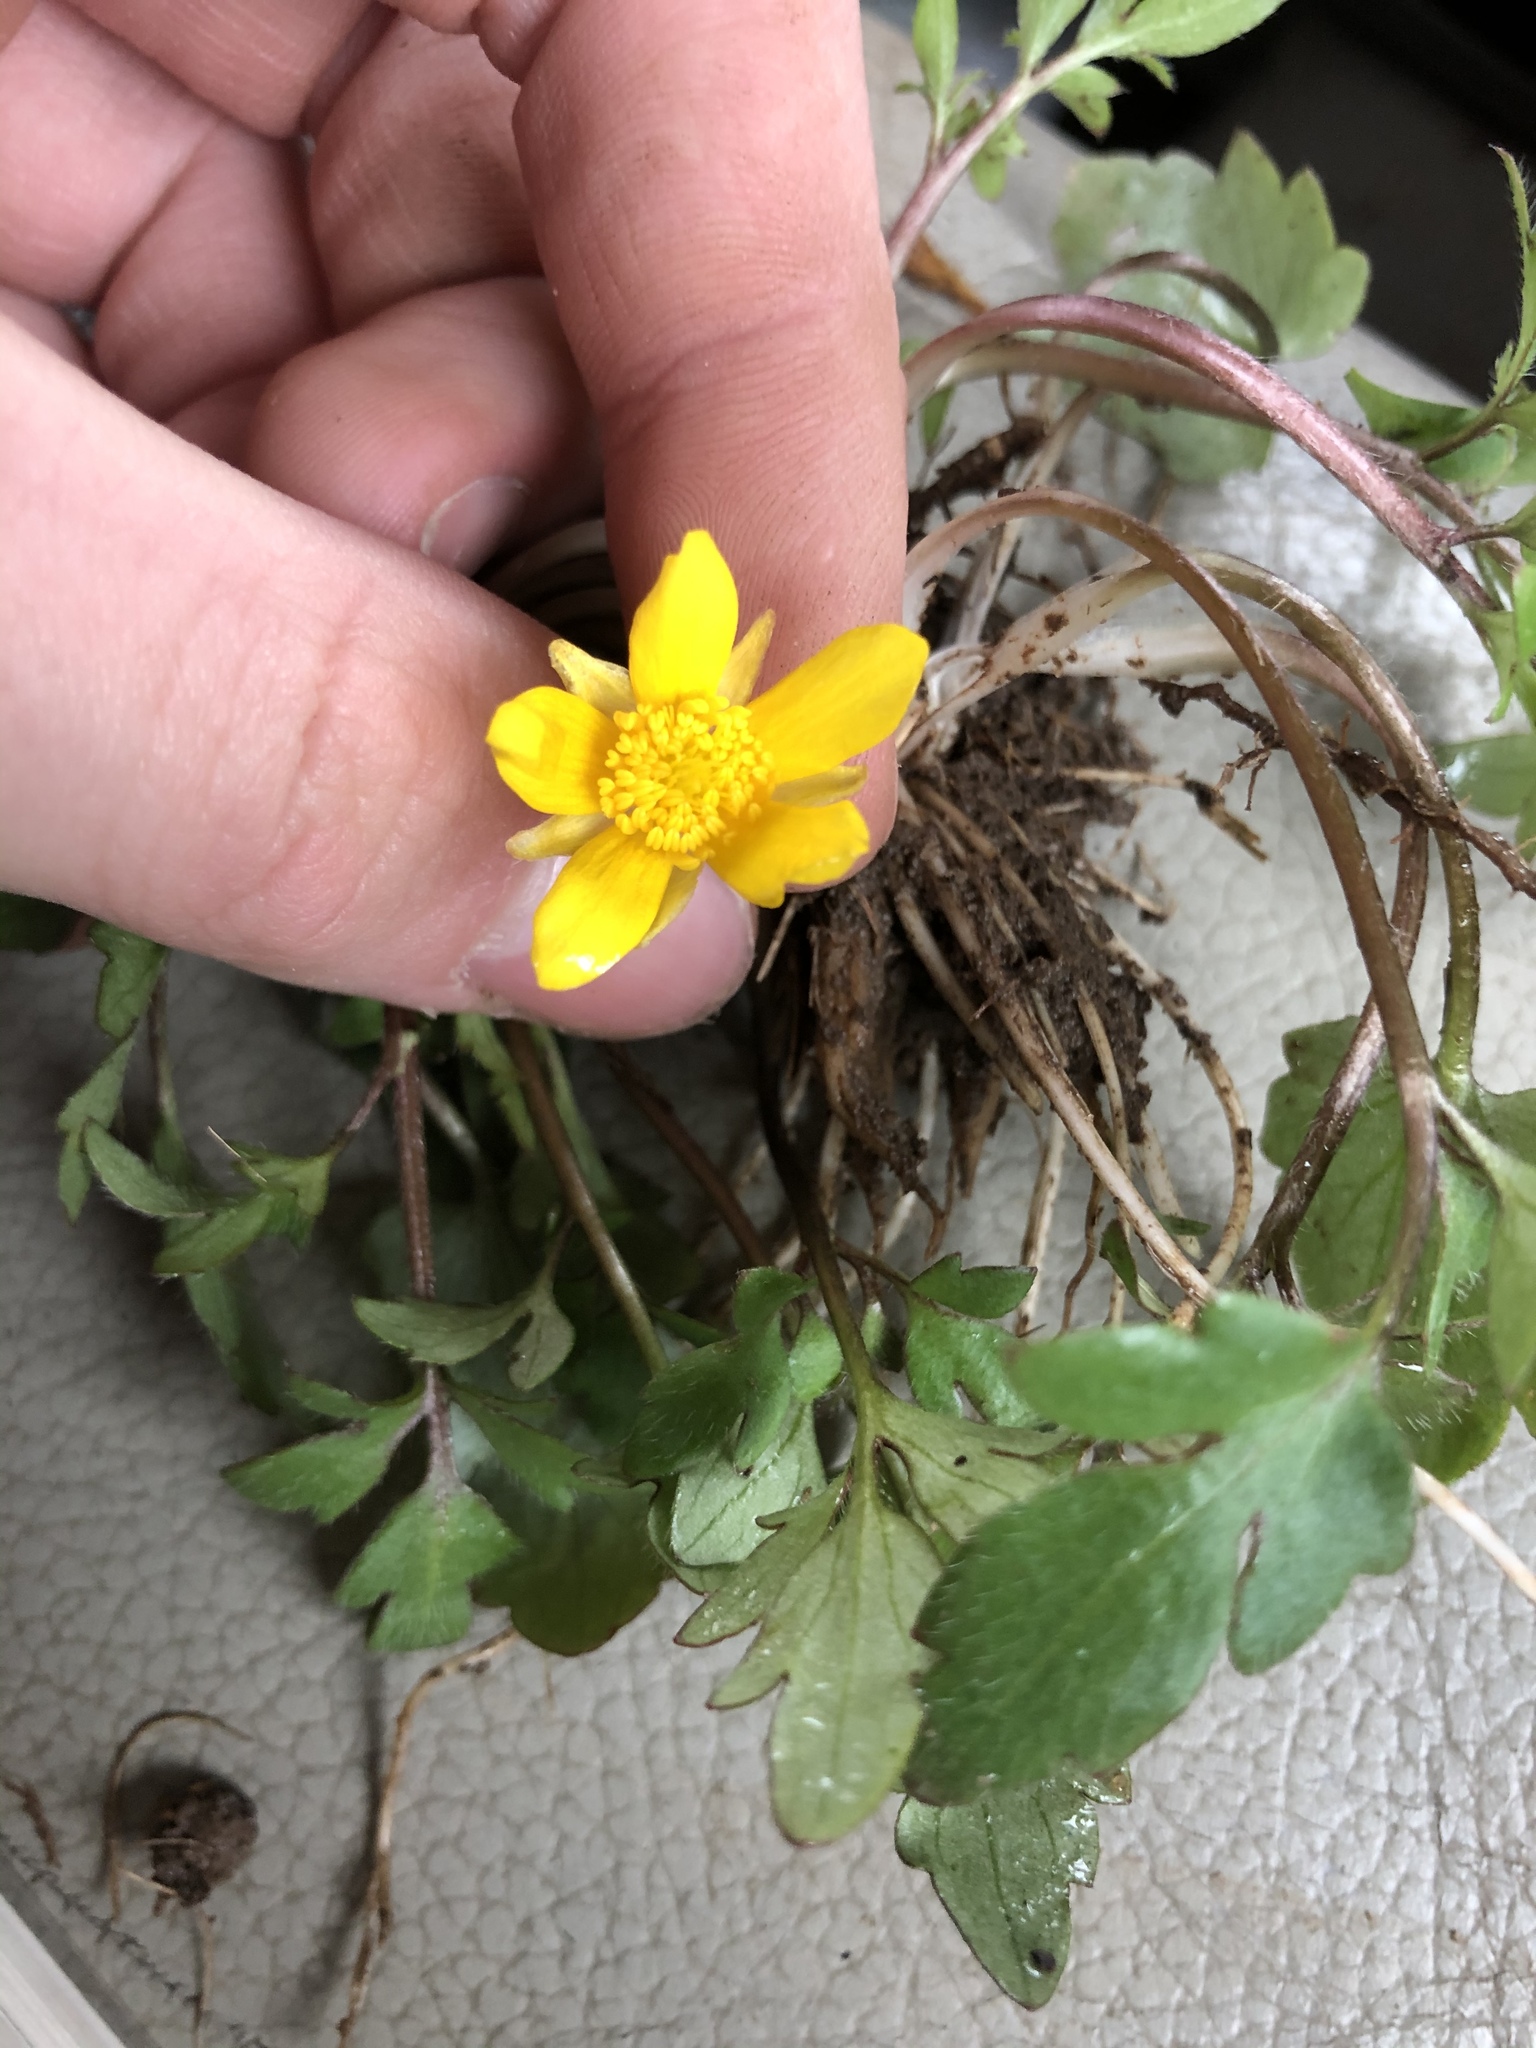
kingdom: Plantae
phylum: Tracheophyta
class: Magnoliopsida
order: Ranunculales
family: Ranunculaceae
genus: Ranunculus
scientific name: Ranunculus fascicularis
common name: Early buttercup
